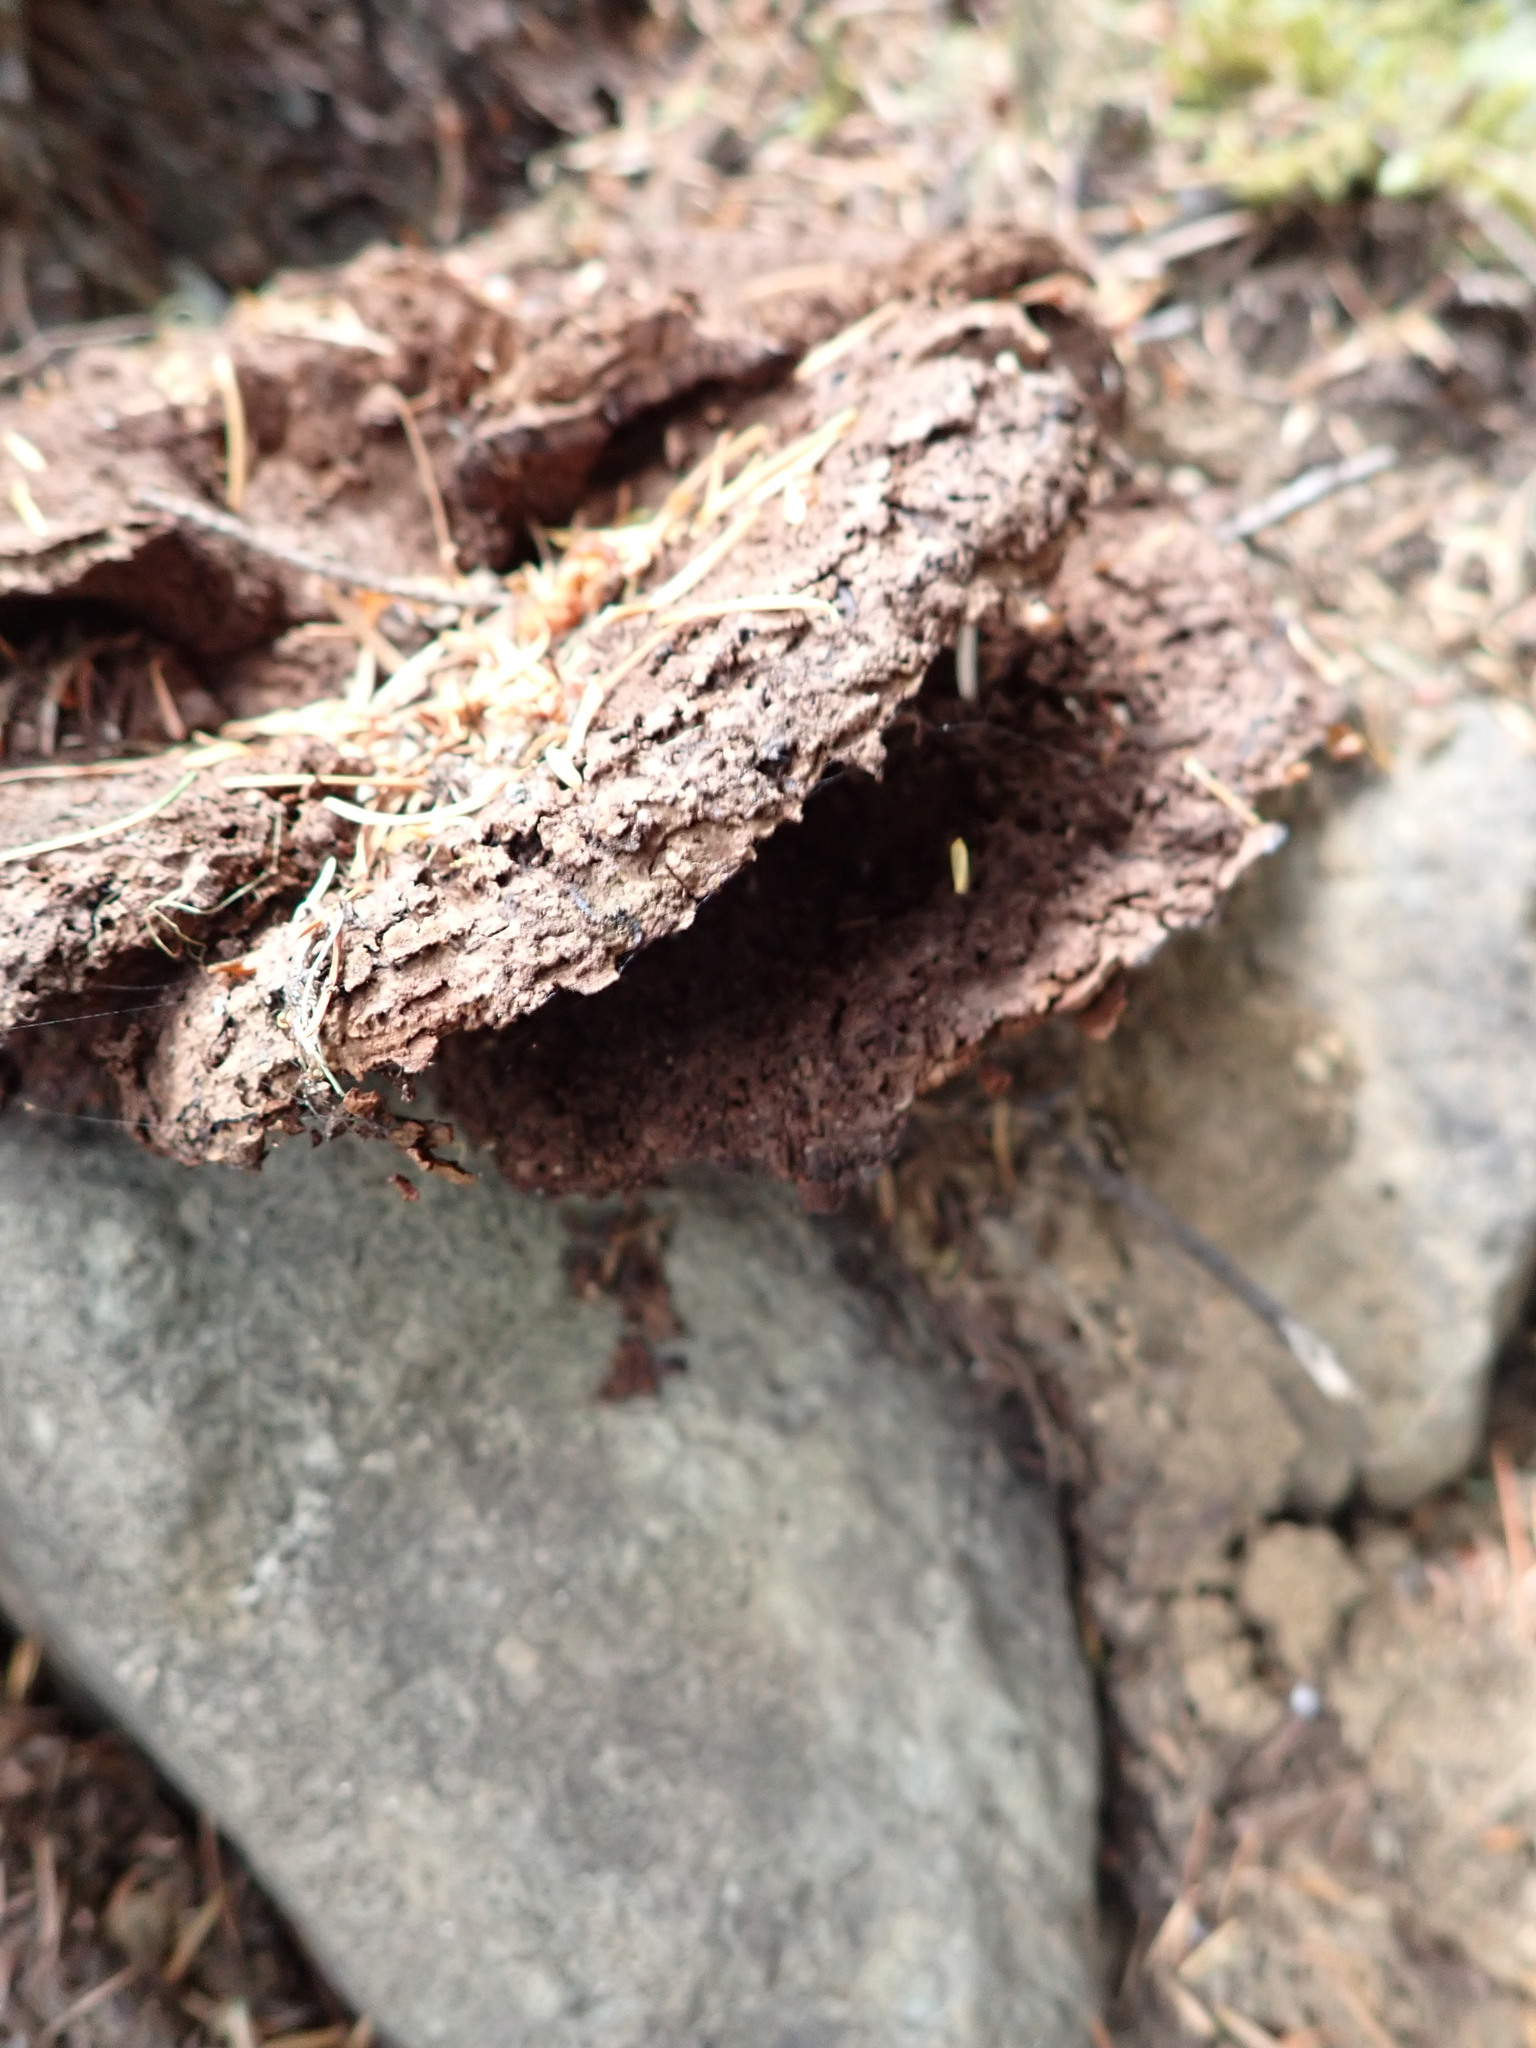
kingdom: Fungi
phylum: Basidiomycota
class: Agaricomycetes
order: Polyporales
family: Laetiporaceae
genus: Phaeolus
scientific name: Phaeolus schweinitzii
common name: Dyer's mazegill
